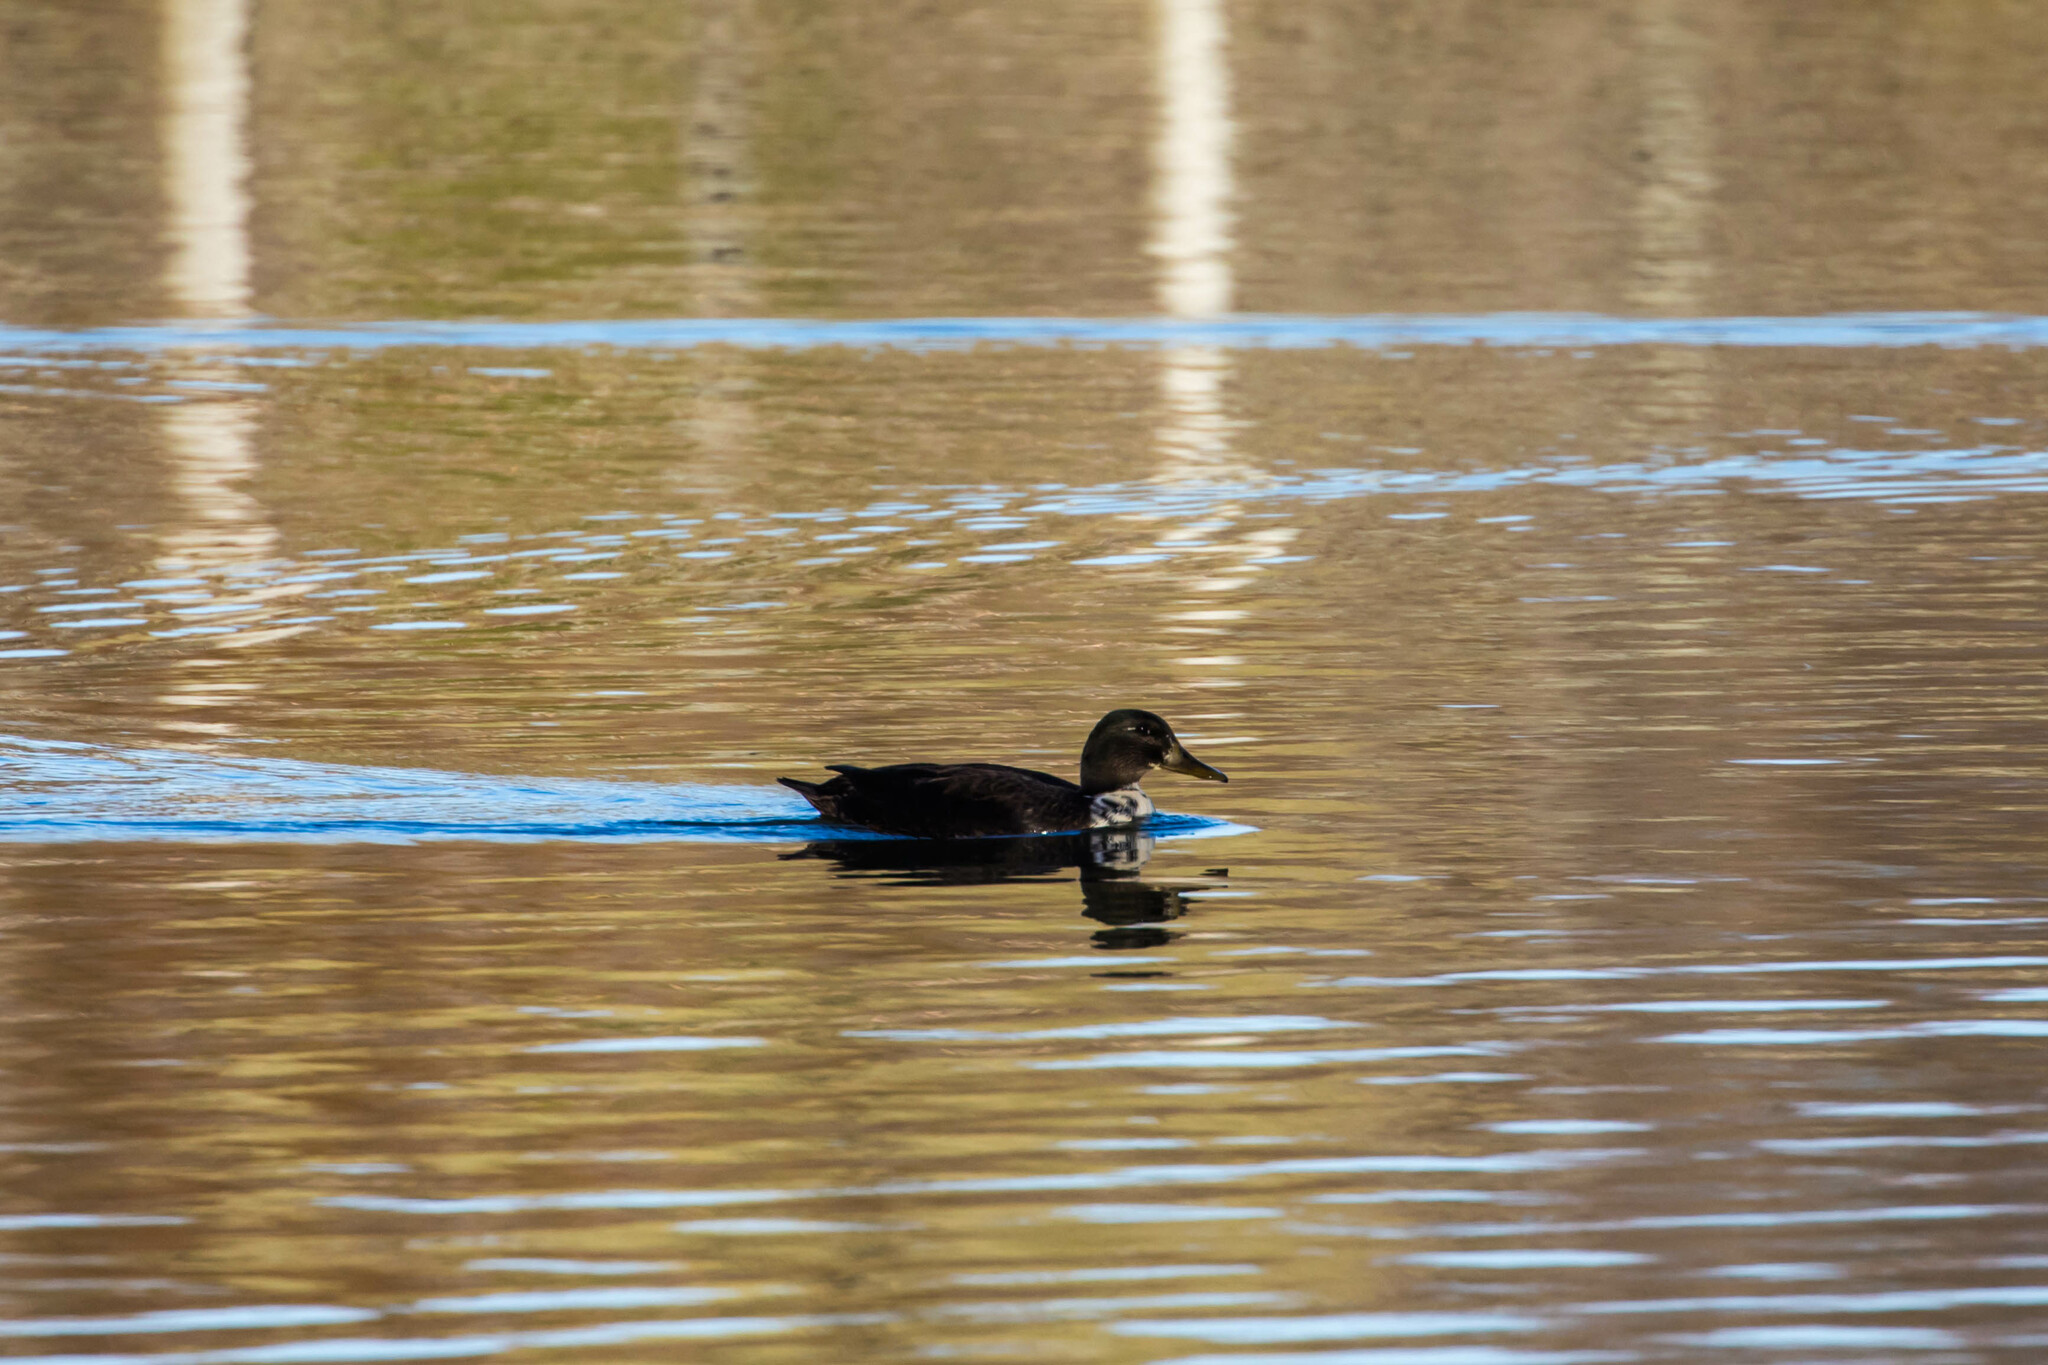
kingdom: Animalia
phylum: Chordata
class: Aves
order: Anseriformes
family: Anatidae
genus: Anas
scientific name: Anas platyrhynchos
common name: Mallard
